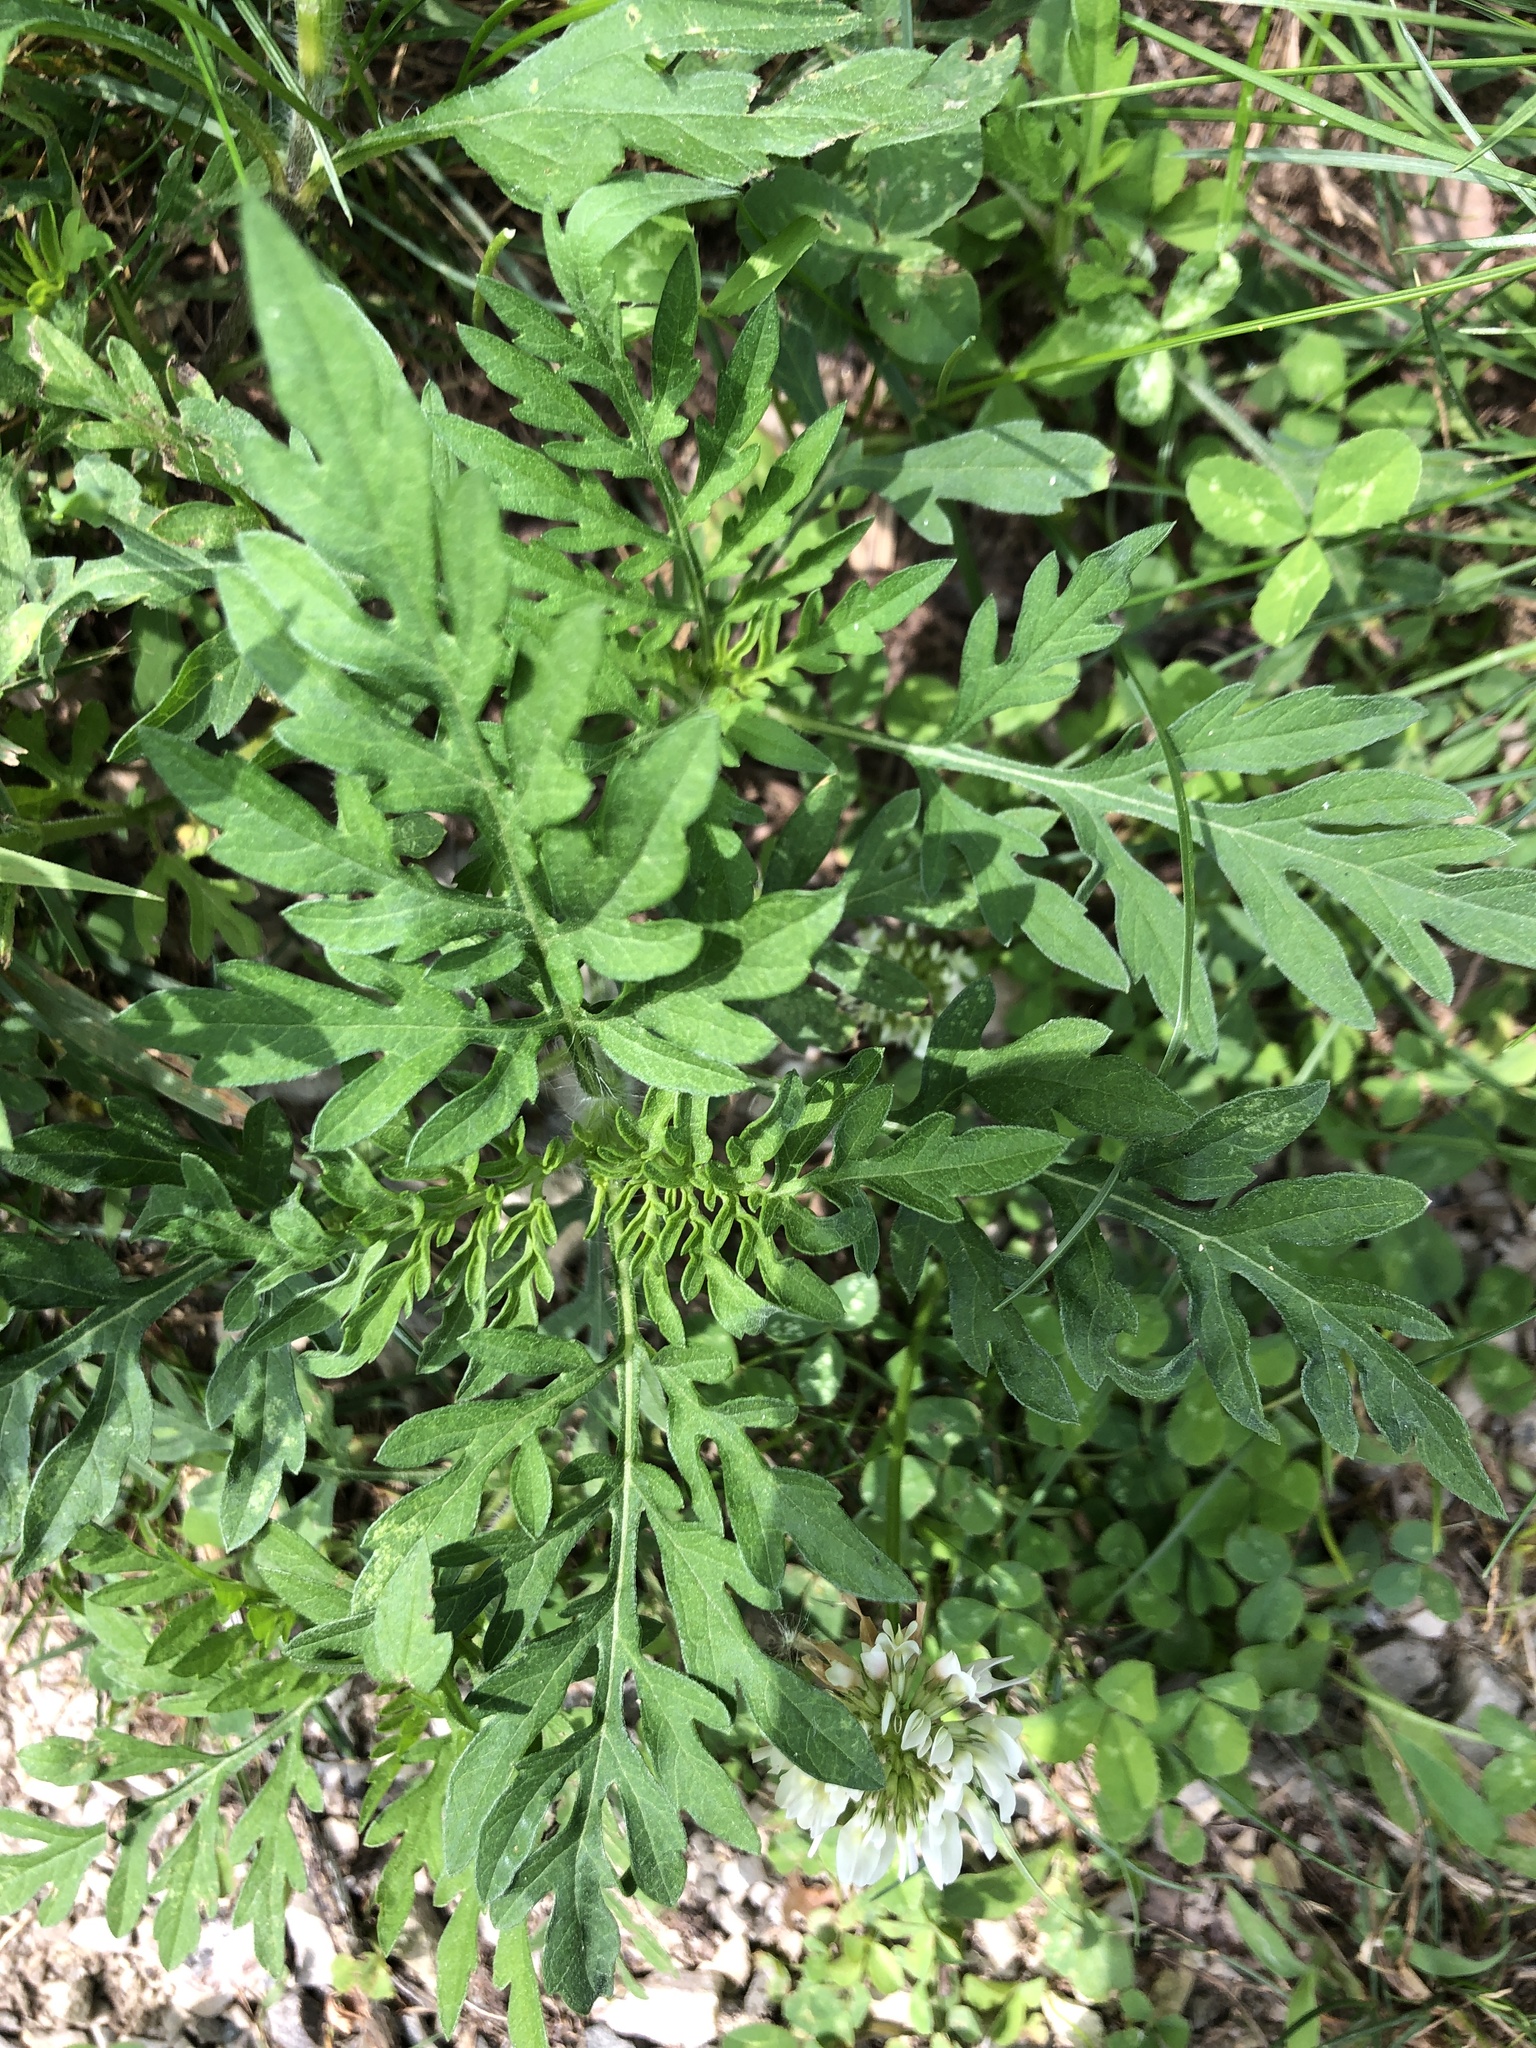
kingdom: Plantae
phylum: Tracheophyta
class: Magnoliopsida
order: Asterales
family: Asteraceae
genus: Ambrosia
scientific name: Ambrosia artemisiifolia
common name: Annual ragweed
